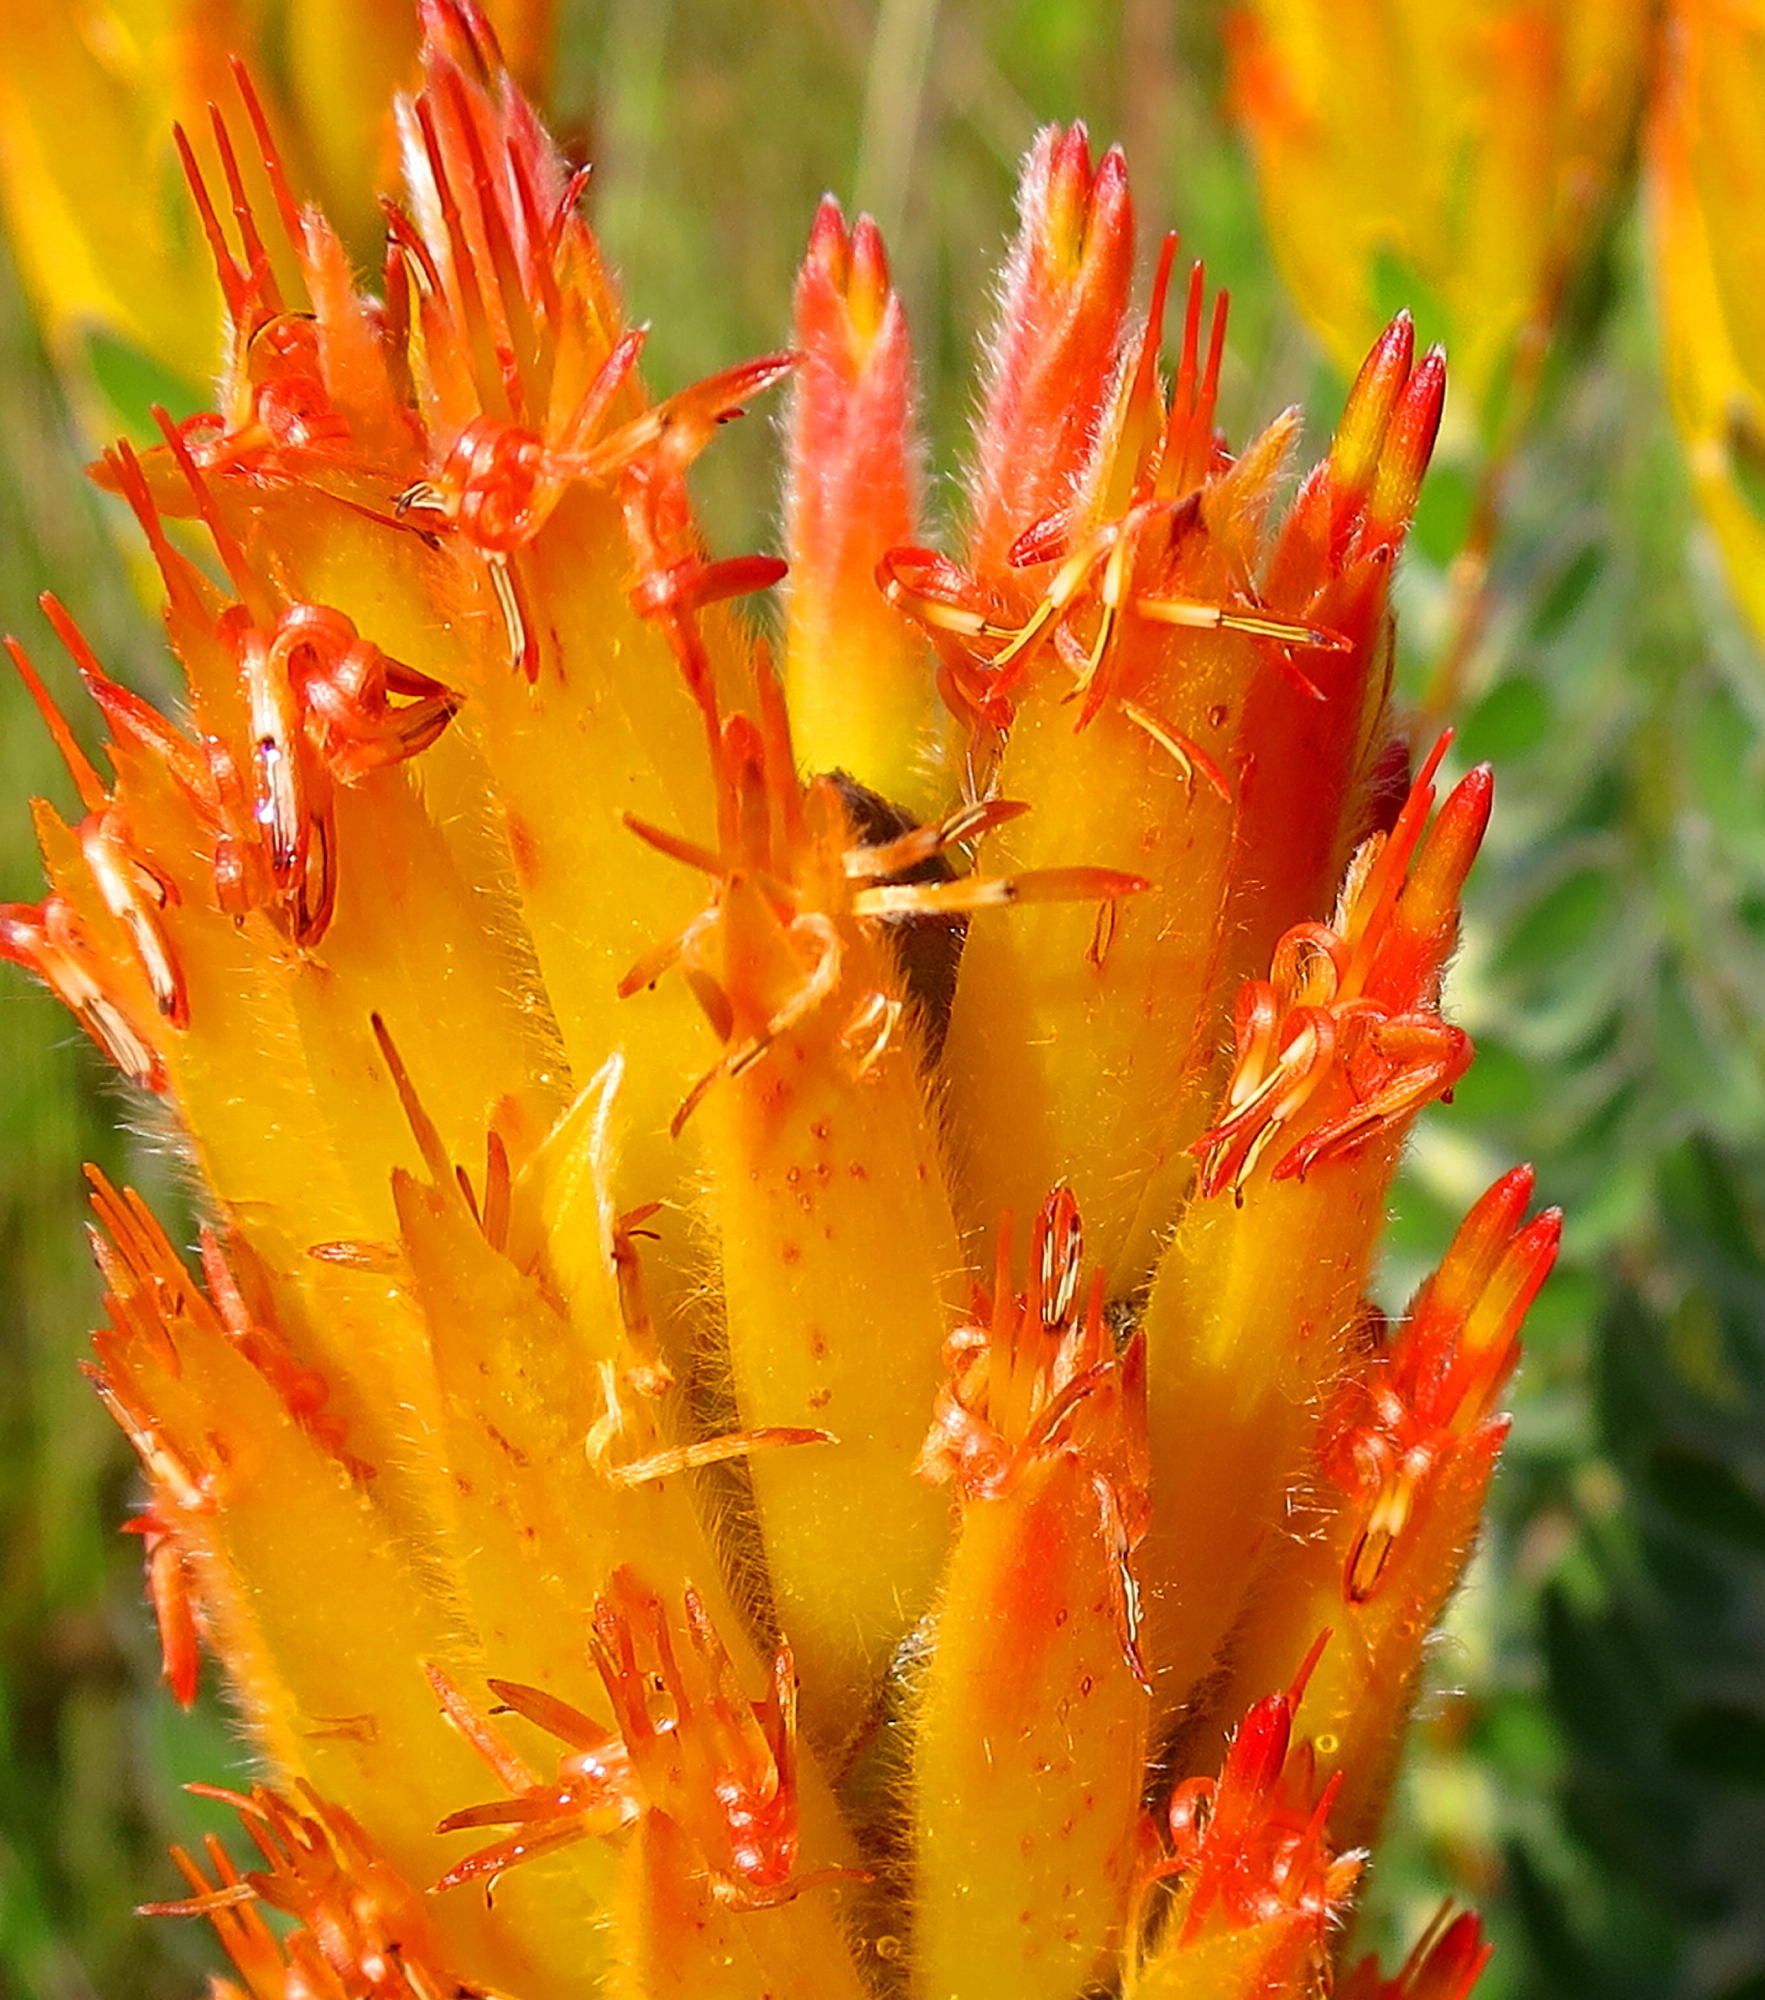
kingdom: Plantae
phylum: Tracheophyta
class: Magnoliopsida
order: Proteales
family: Proteaceae
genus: Mimetes
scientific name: Mimetes pauciflora
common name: Three-flowered pagoda
